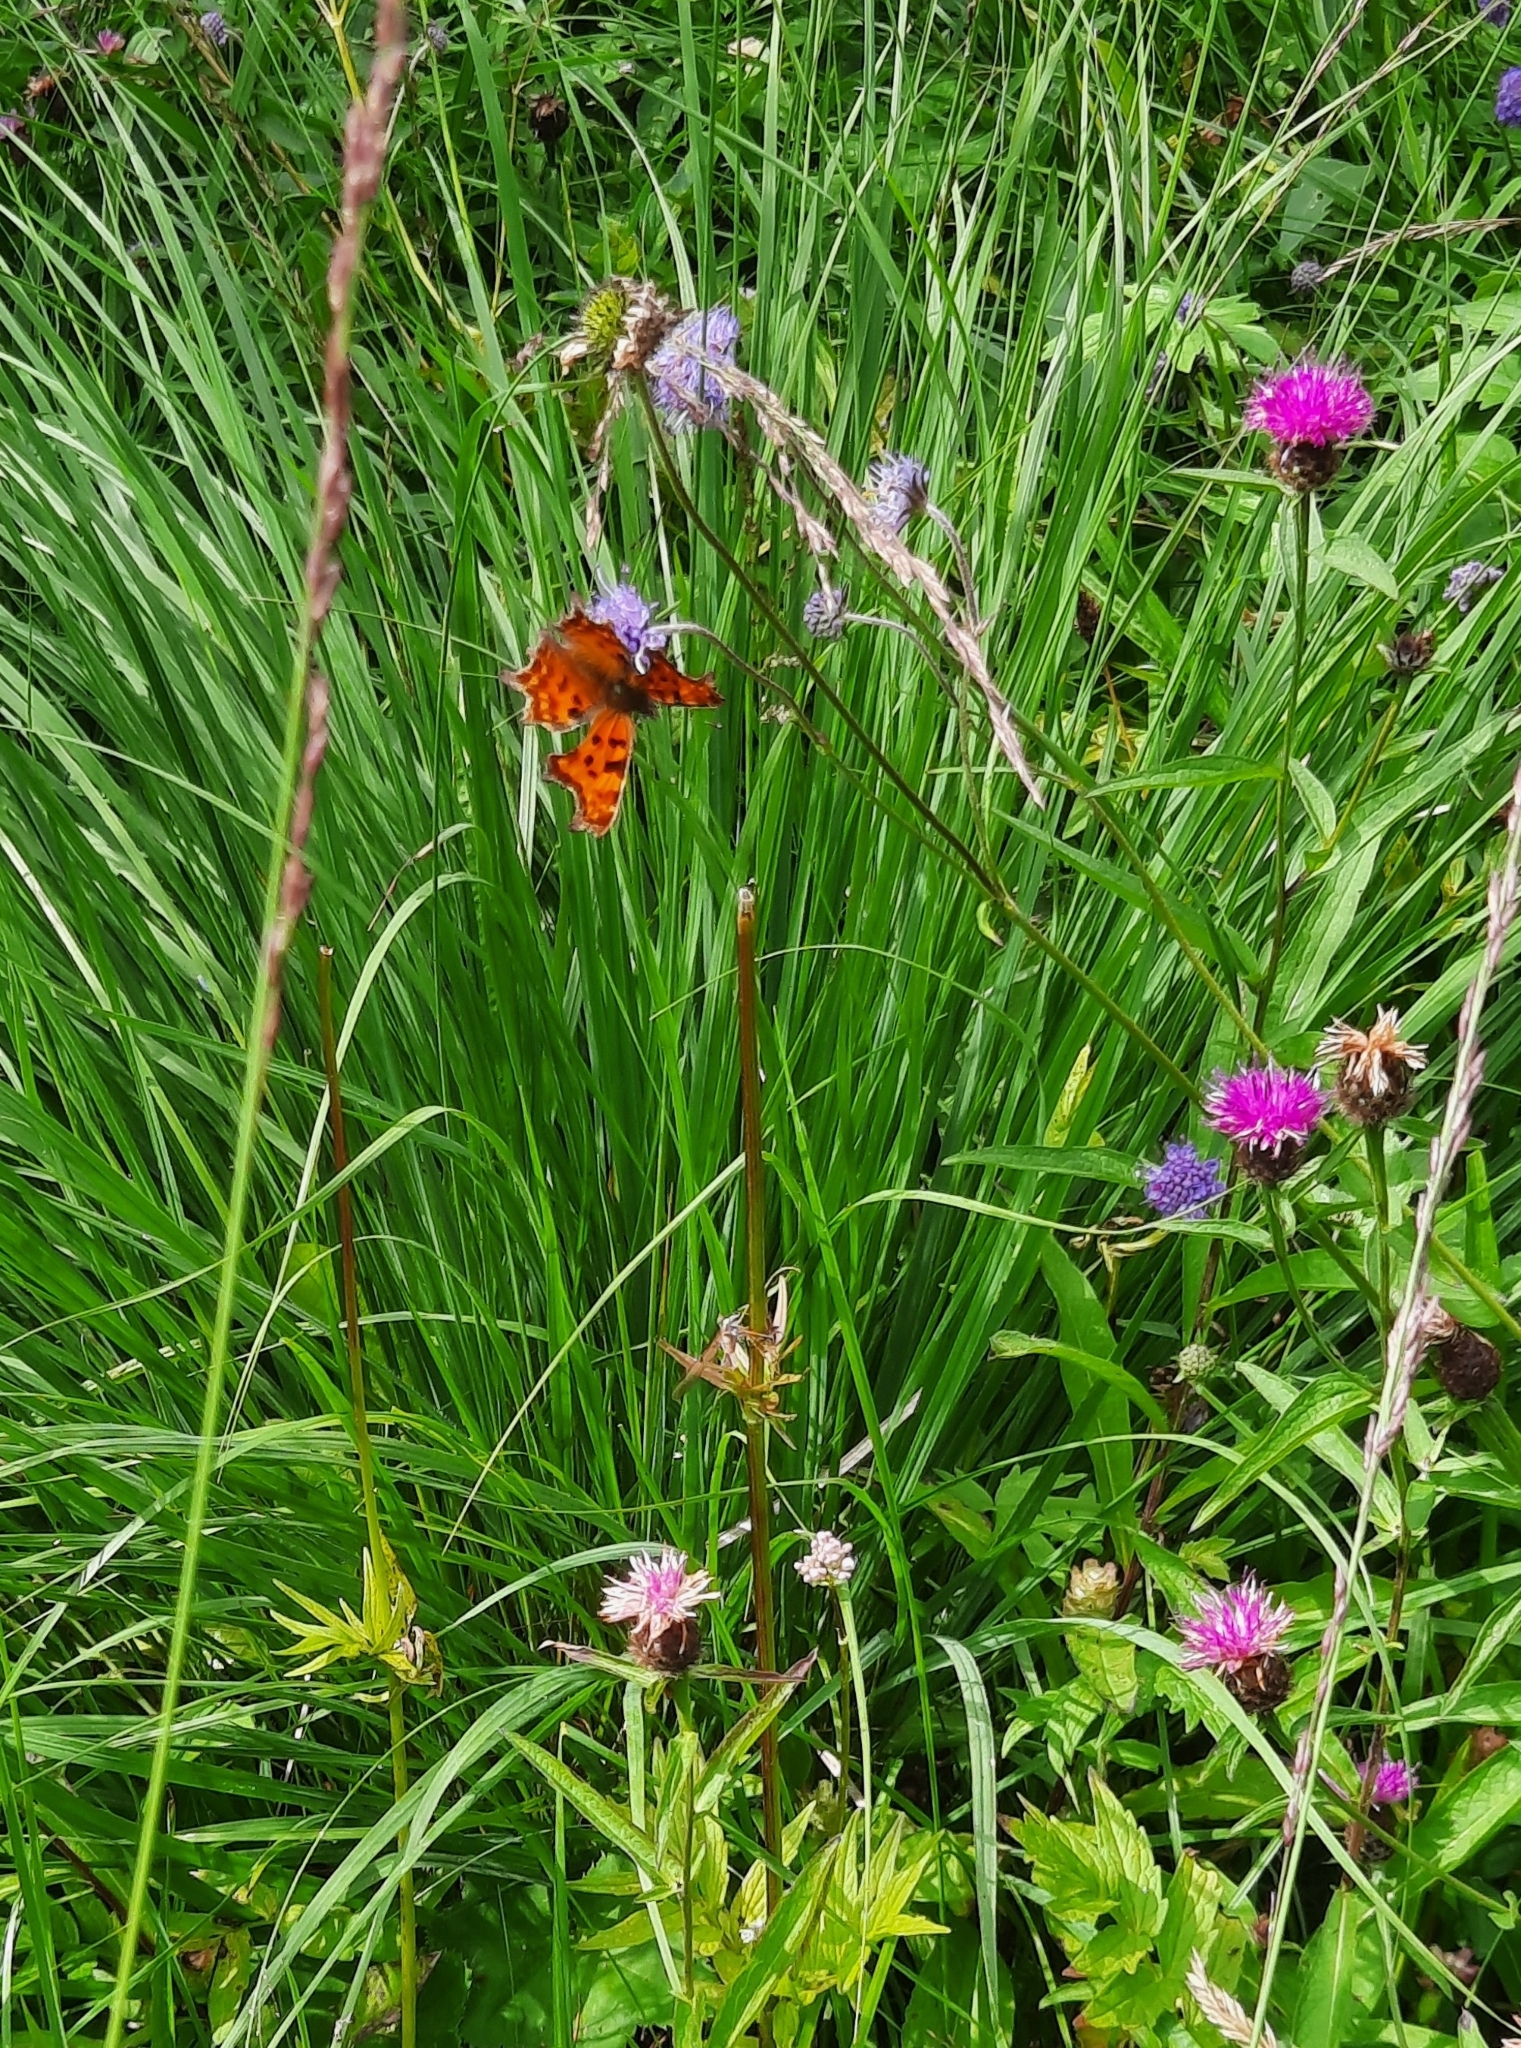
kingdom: Animalia
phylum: Arthropoda
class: Insecta
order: Lepidoptera
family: Nymphalidae
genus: Polygonia
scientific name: Polygonia c-album
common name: Comma
